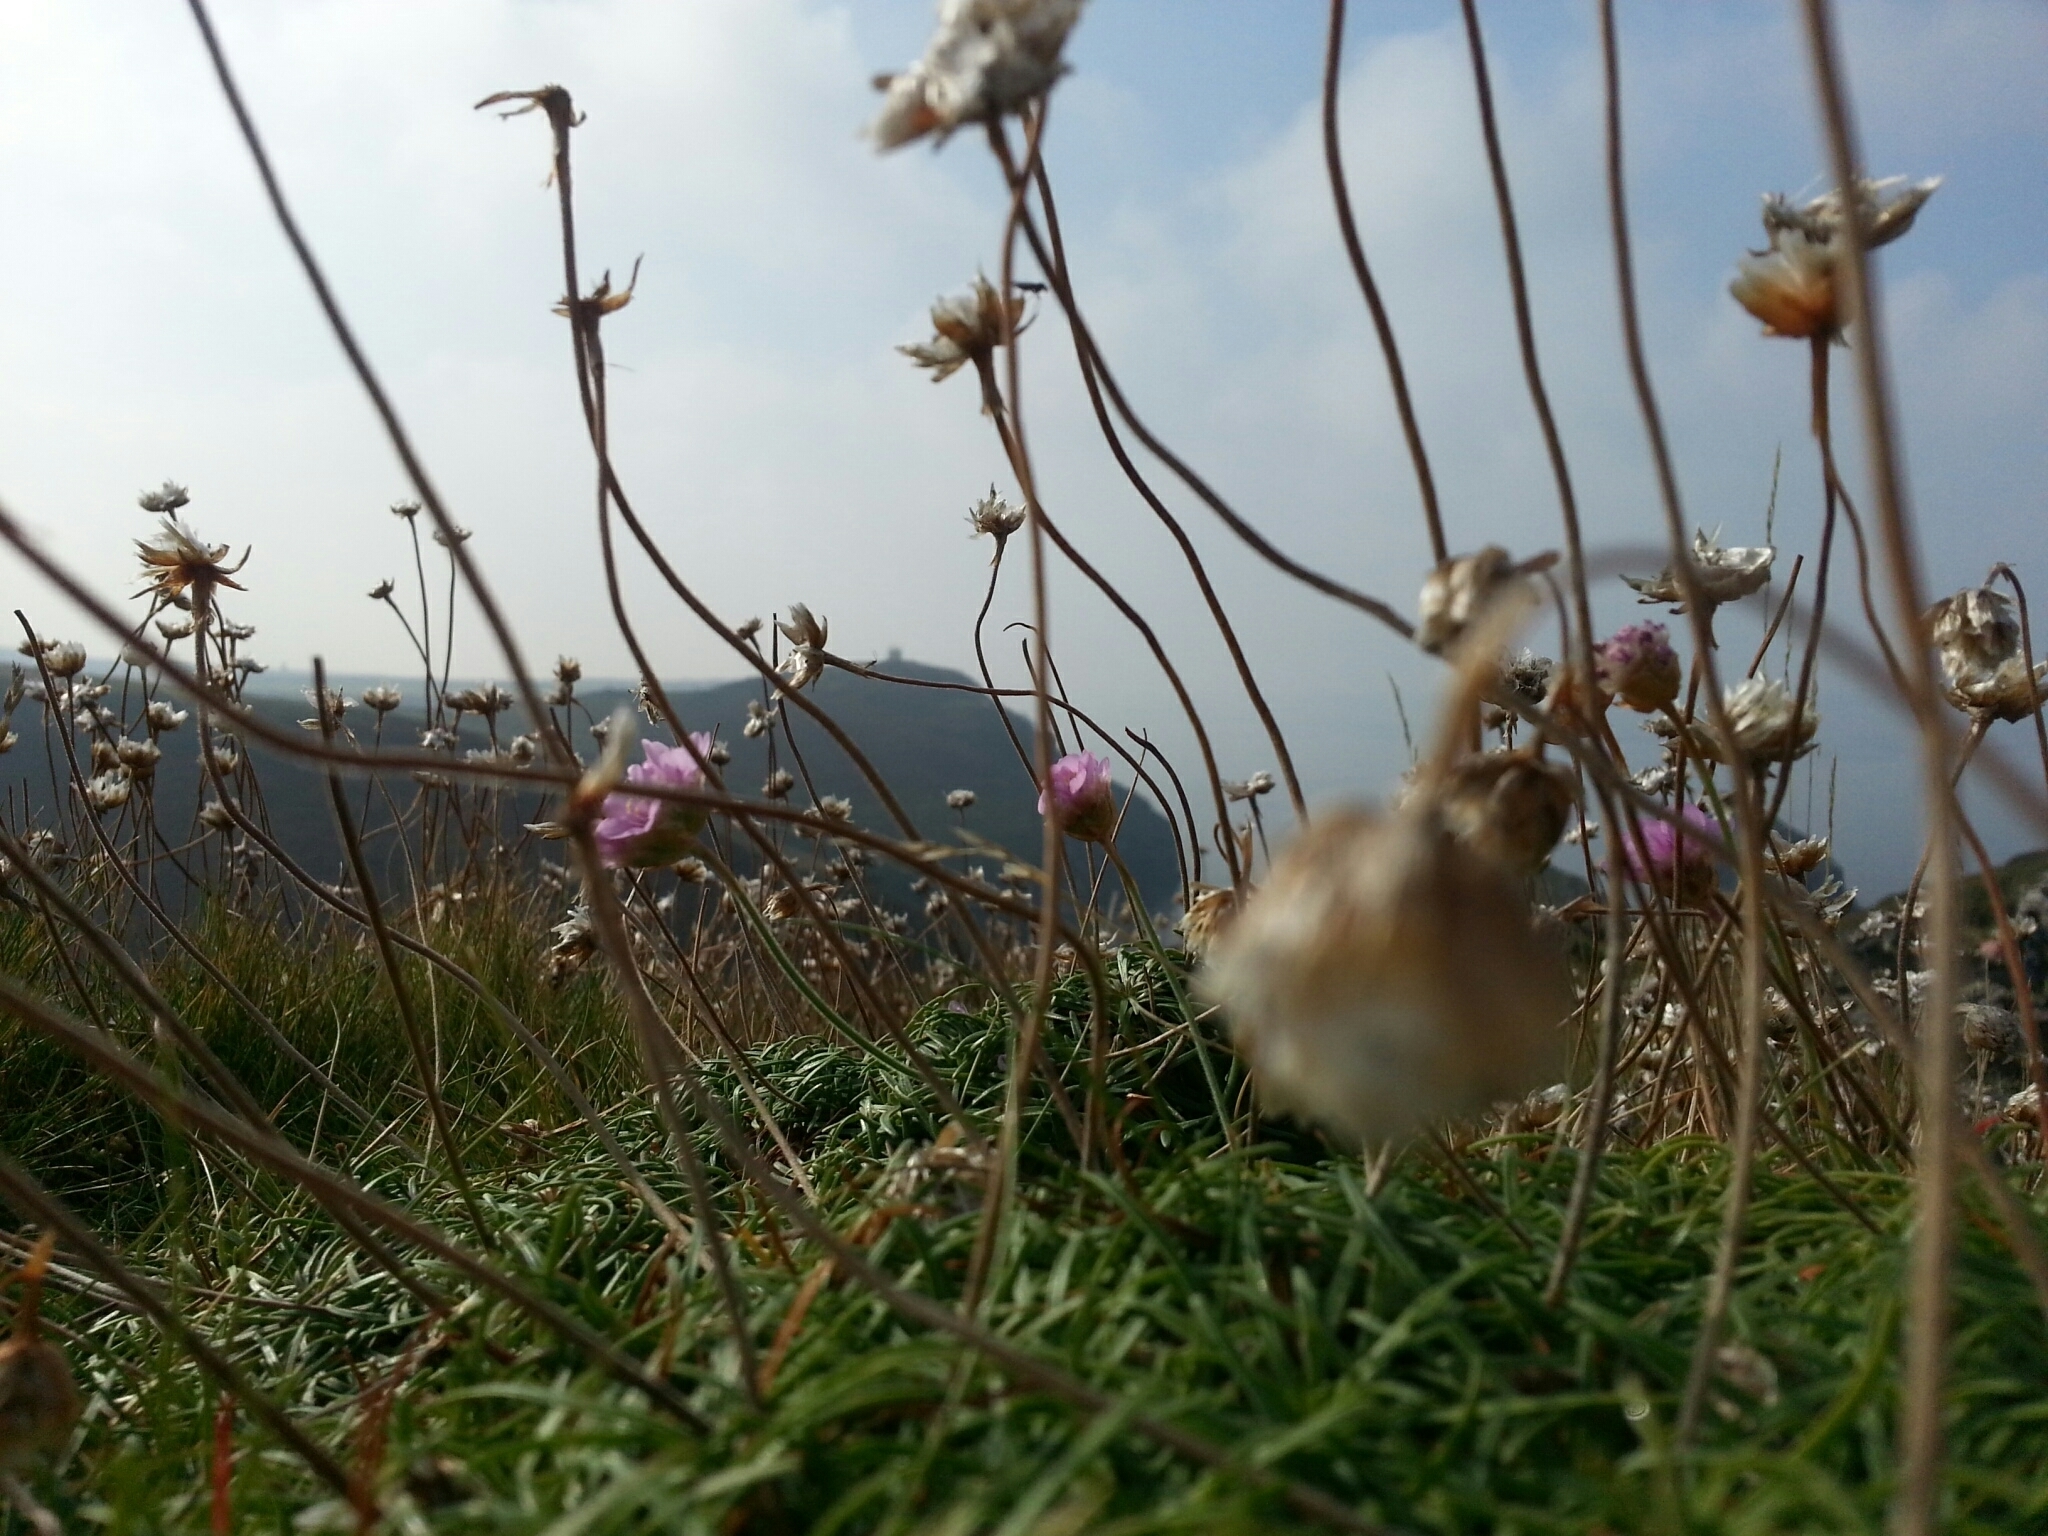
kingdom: Plantae
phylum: Tracheophyta
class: Magnoliopsida
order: Caryophyllales
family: Plumbaginaceae
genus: Armeria
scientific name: Armeria maritima
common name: Thrift
